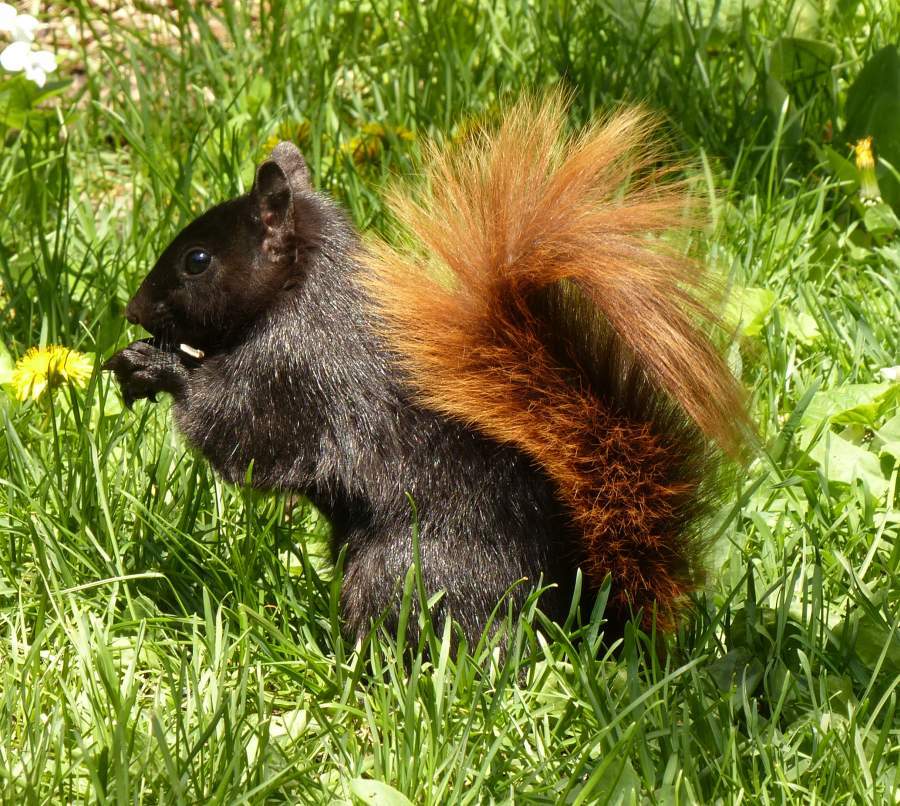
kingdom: Animalia
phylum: Chordata
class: Mammalia
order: Rodentia
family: Sciuridae
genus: Sciurus
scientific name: Sciurus carolinensis
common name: Eastern gray squirrel
